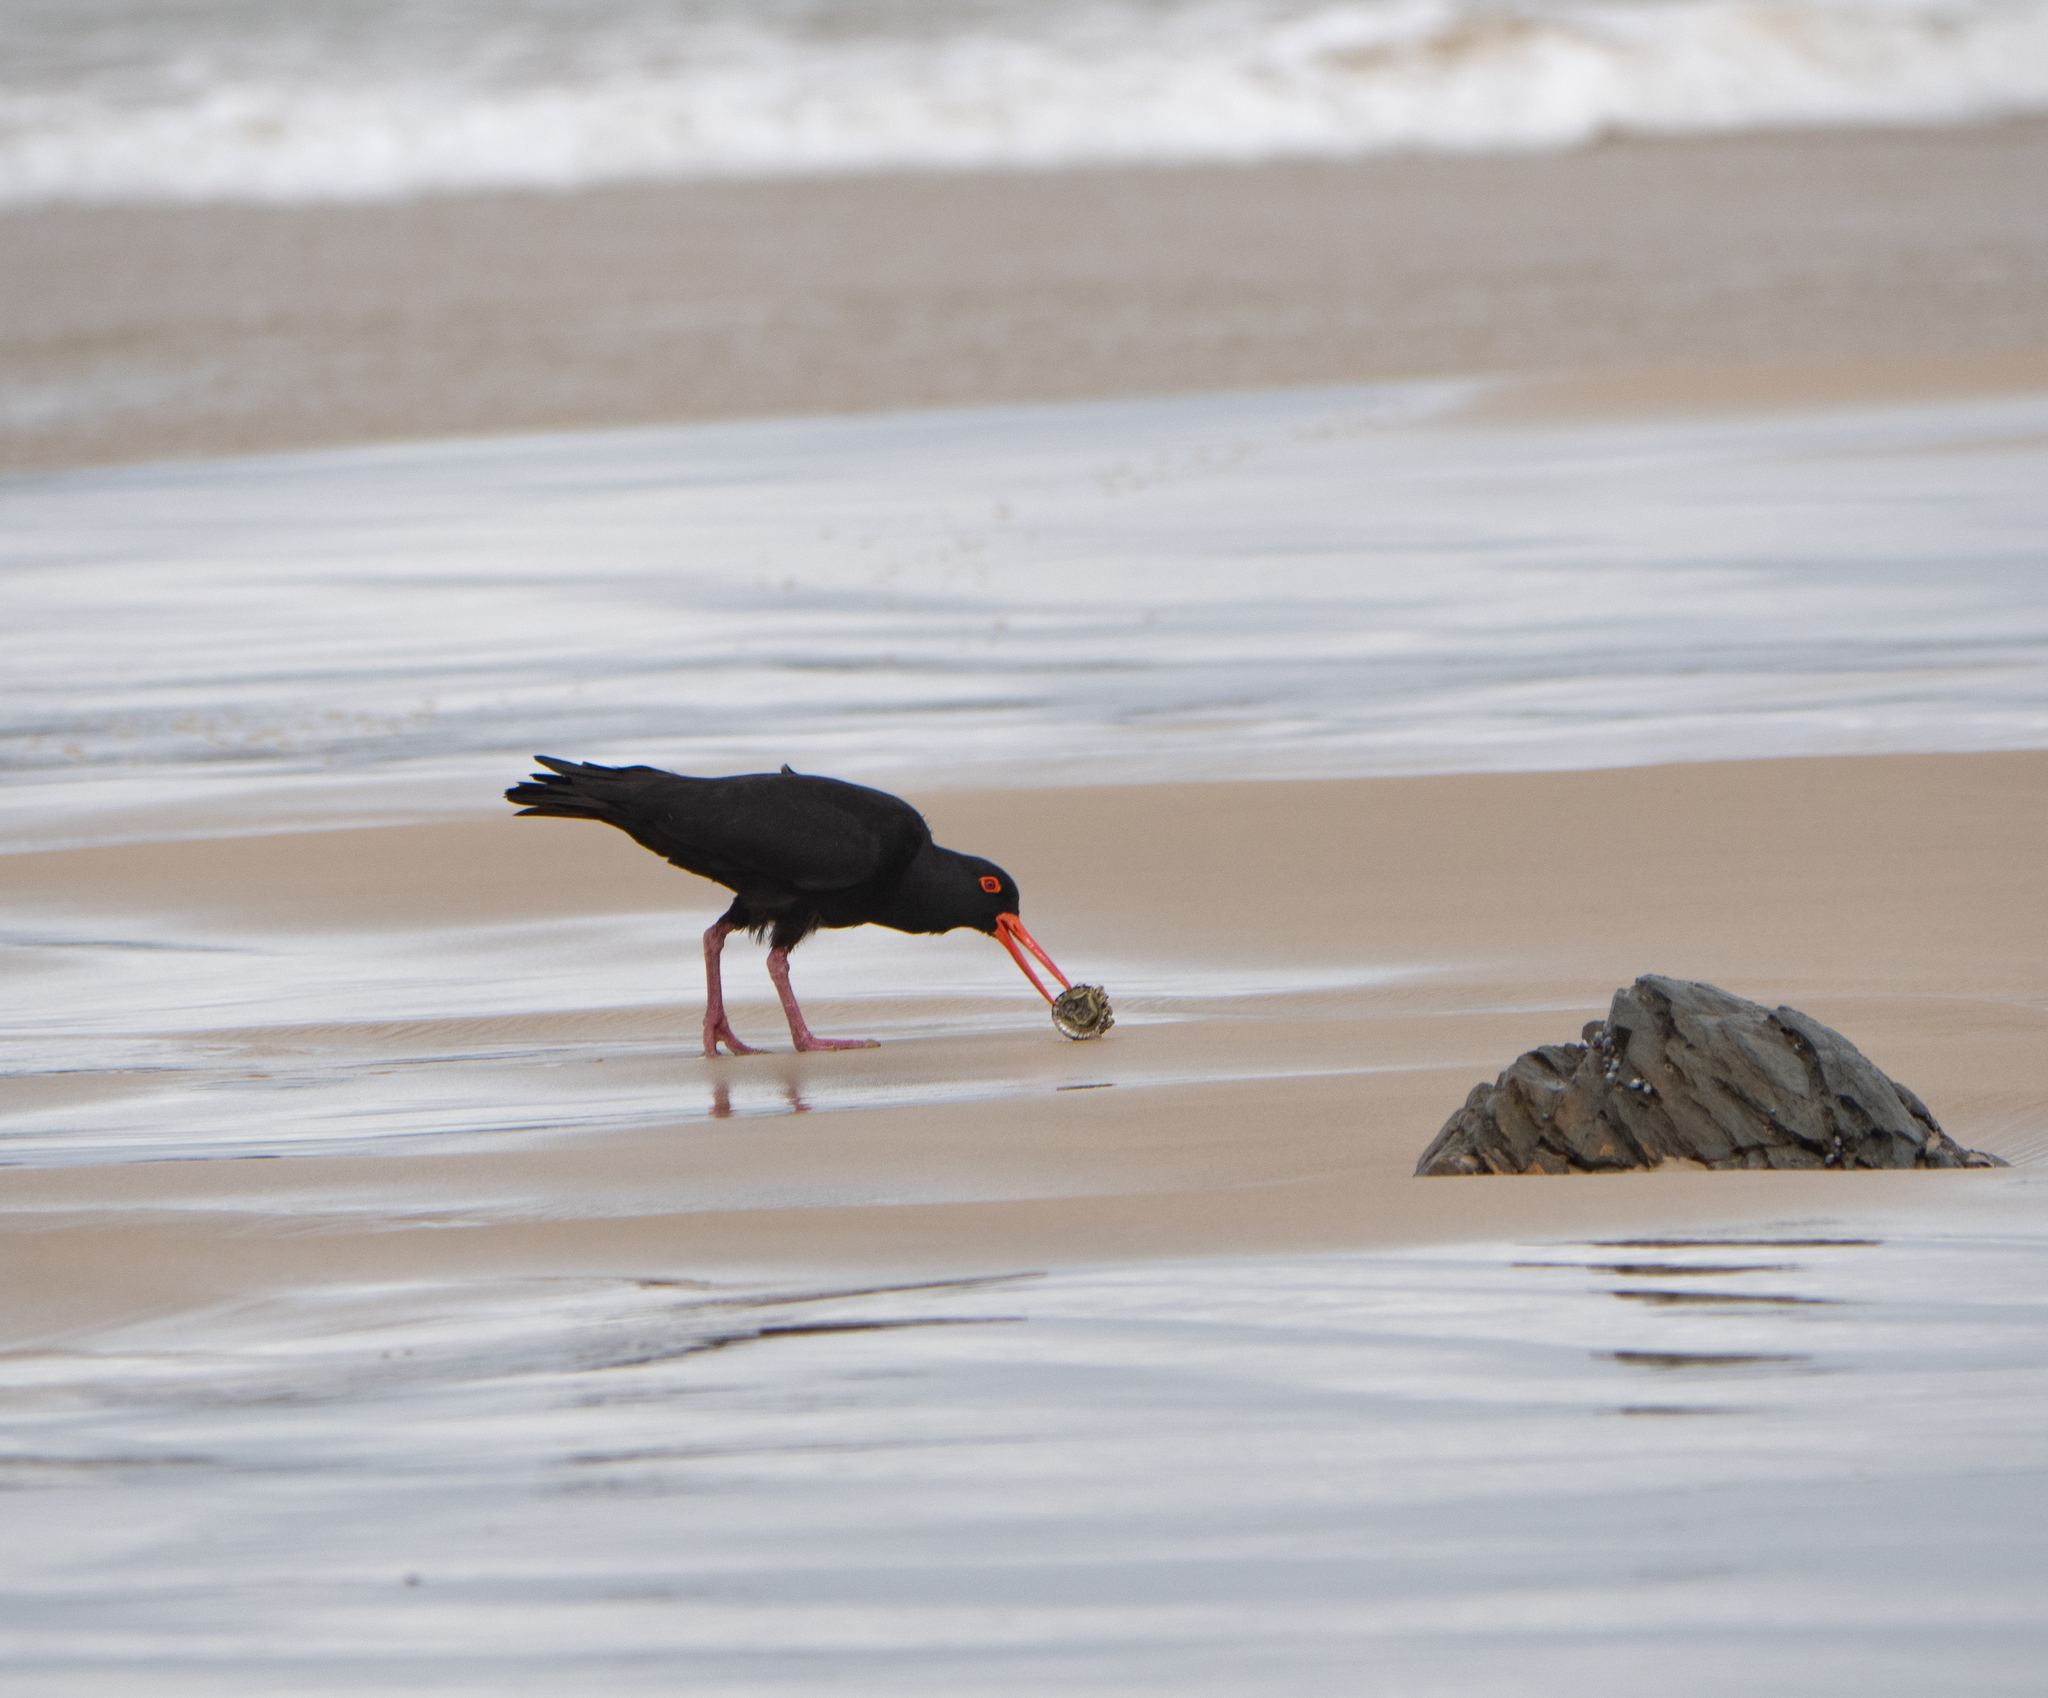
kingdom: Animalia
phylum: Chordata
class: Aves
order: Charadriiformes
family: Haematopodidae
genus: Haematopus
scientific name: Haematopus fuliginosus
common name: Sooty oystercatcher
